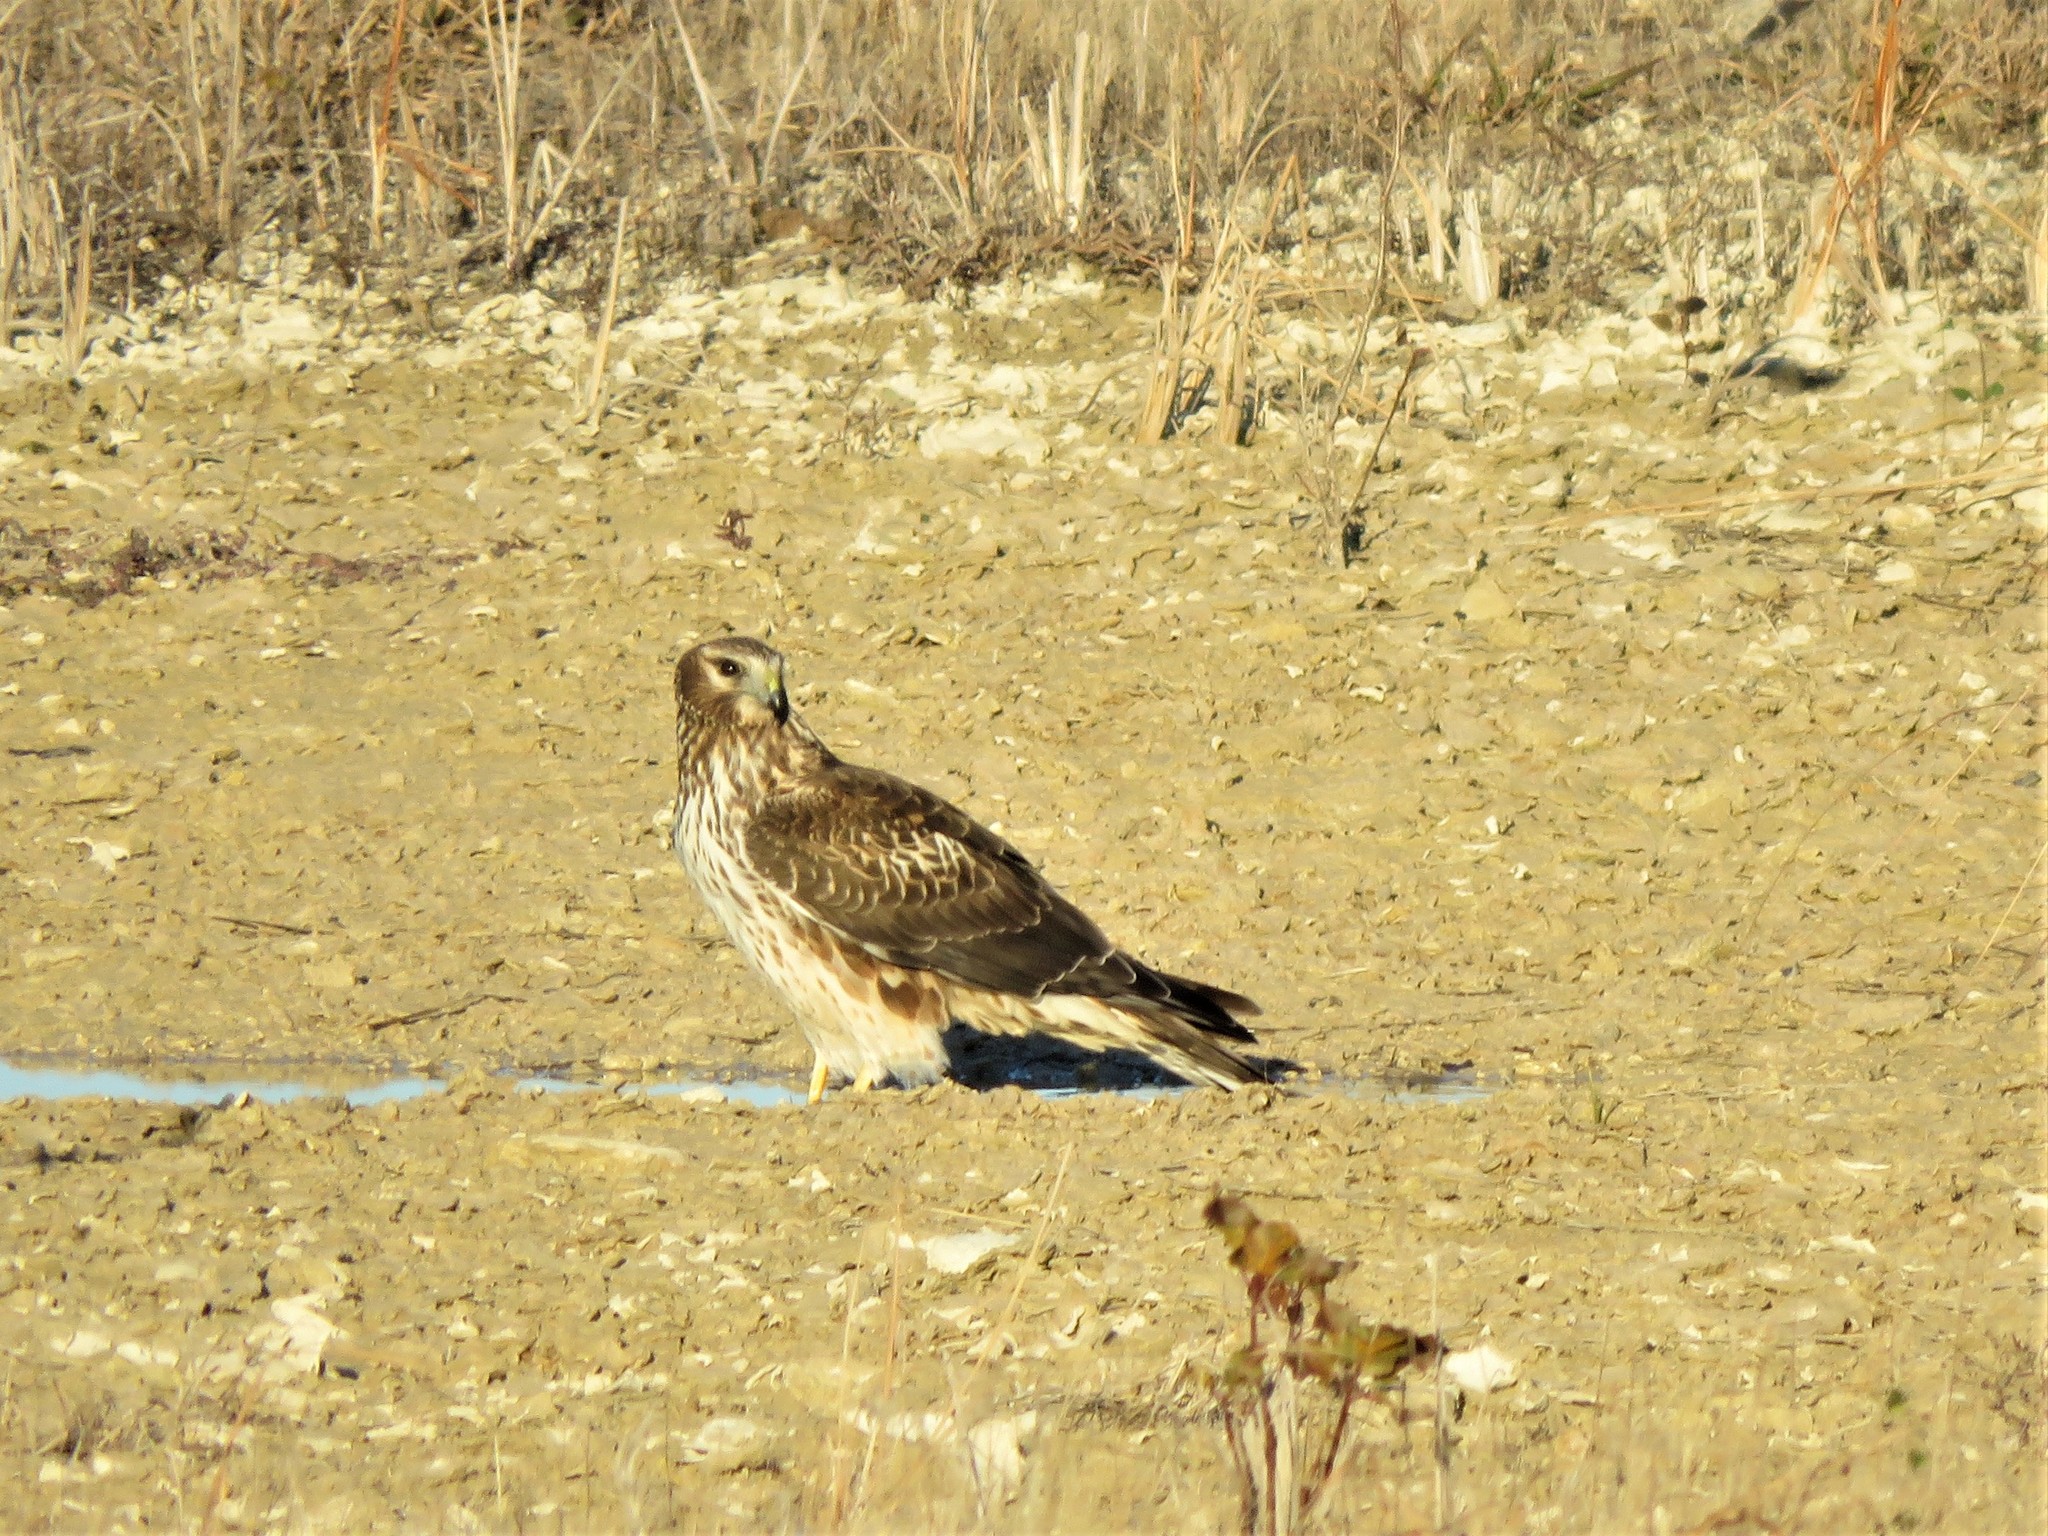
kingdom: Animalia
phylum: Chordata
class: Aves
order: Accipitriformes
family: Accipitridae
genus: Circus
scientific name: Circus cyaneus
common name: Hen harrier
